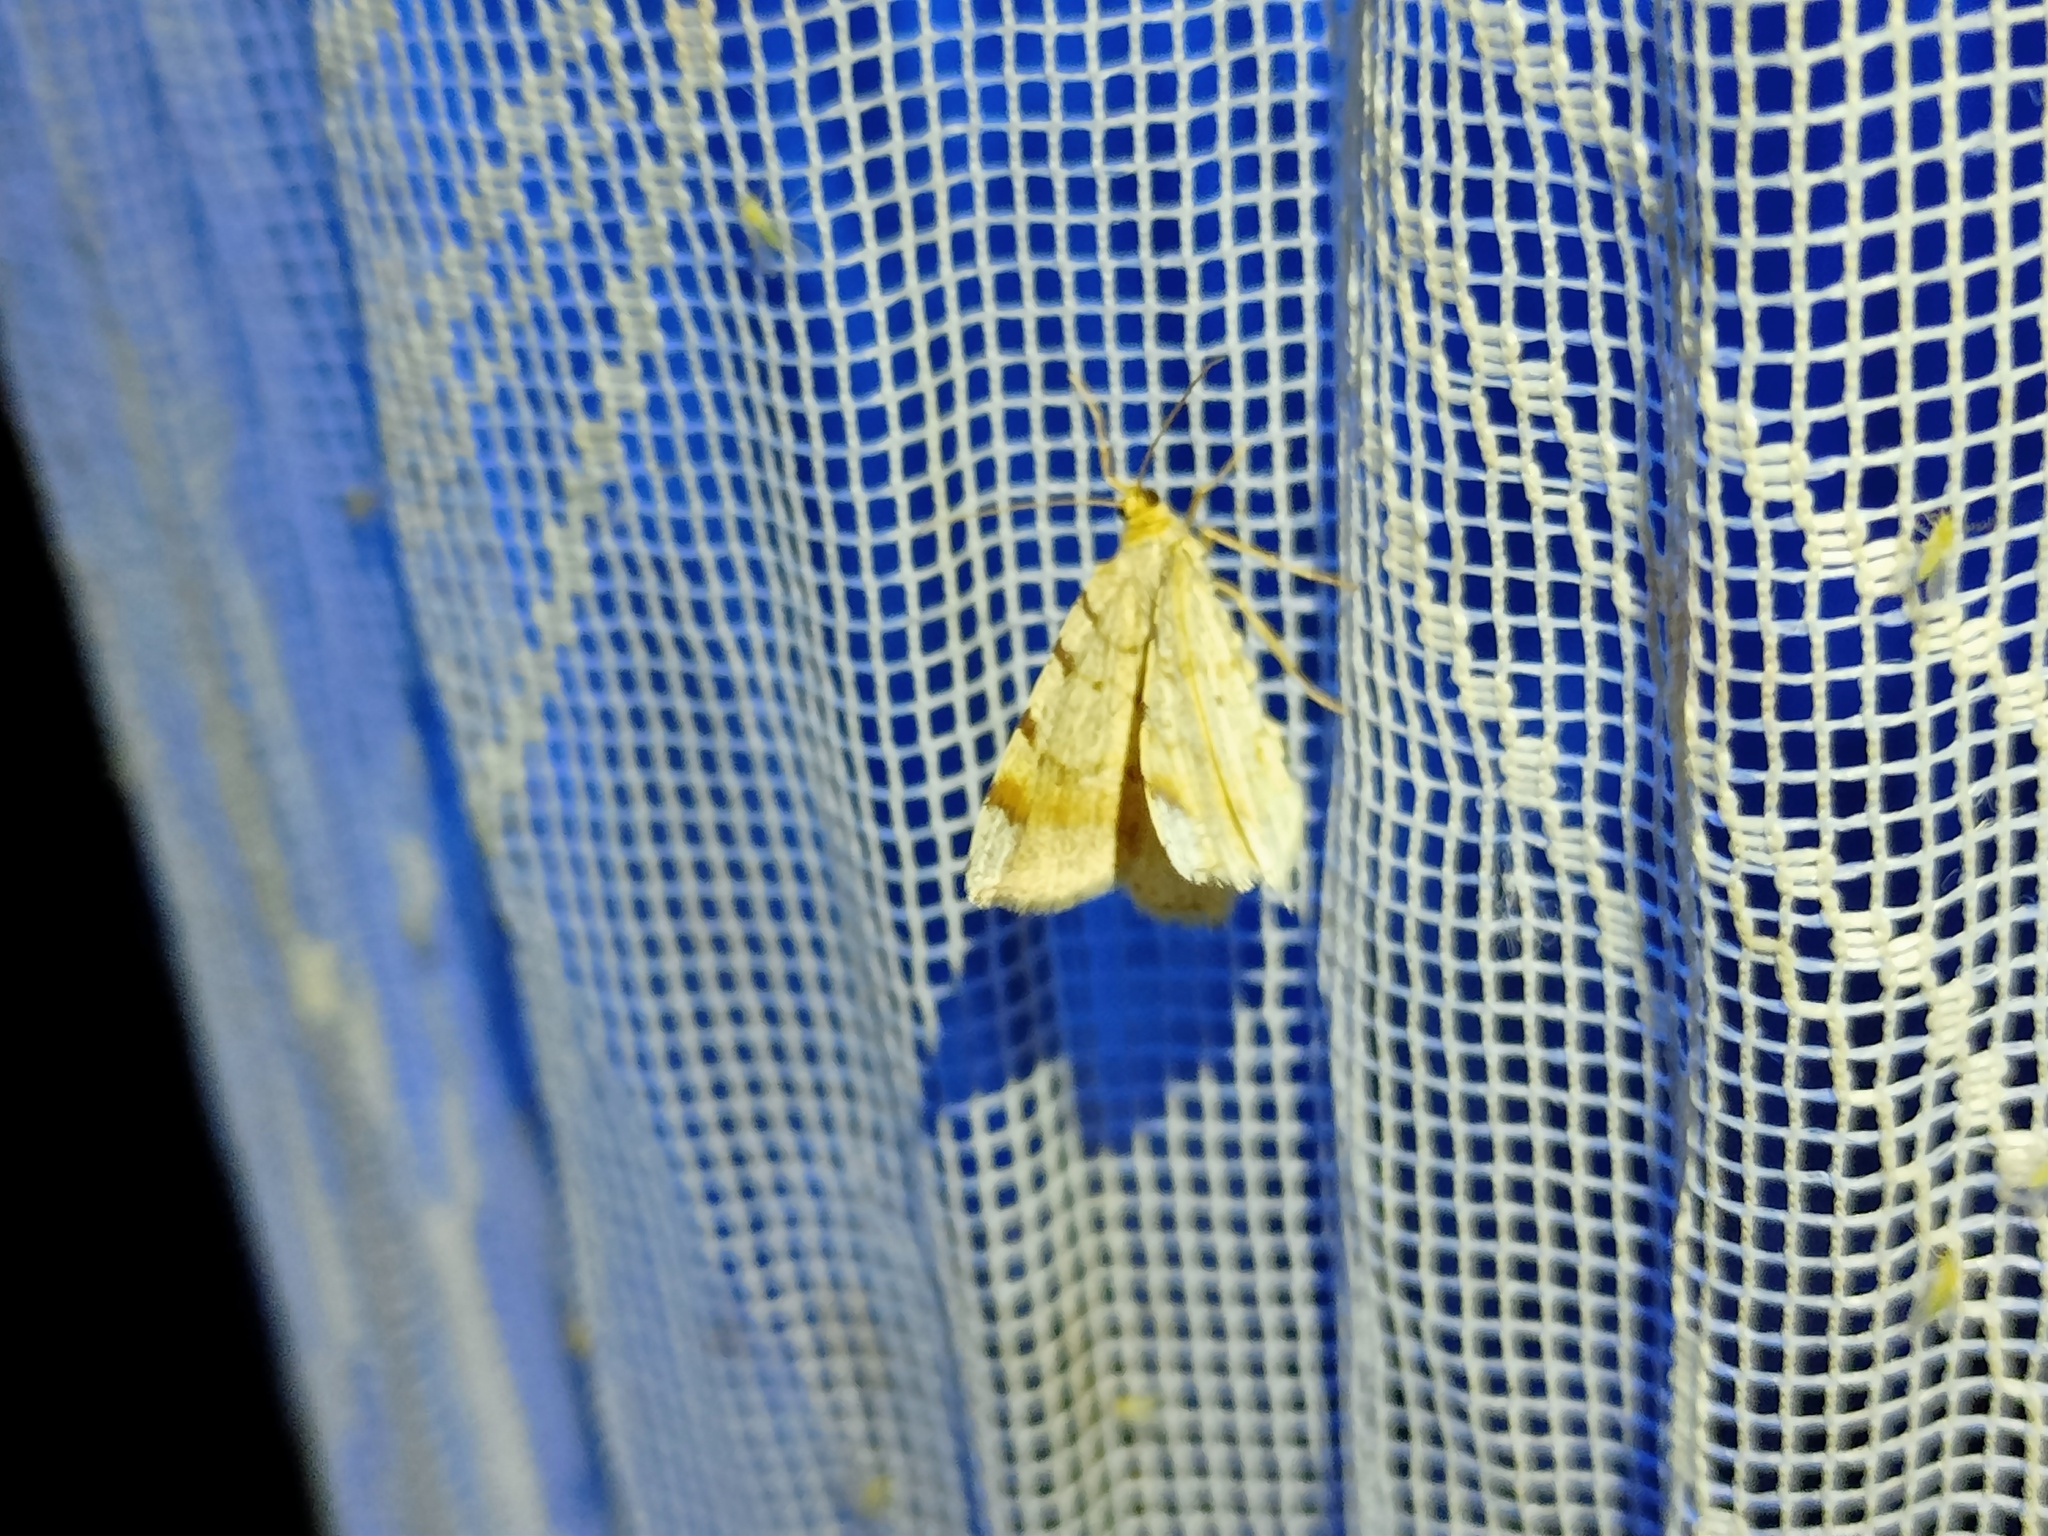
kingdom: Animalia
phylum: Arthropoda
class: Insecta
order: Lepidoptera
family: Geometridae
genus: Macaria
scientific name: Macaria liturata
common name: Tawny-barred angle
